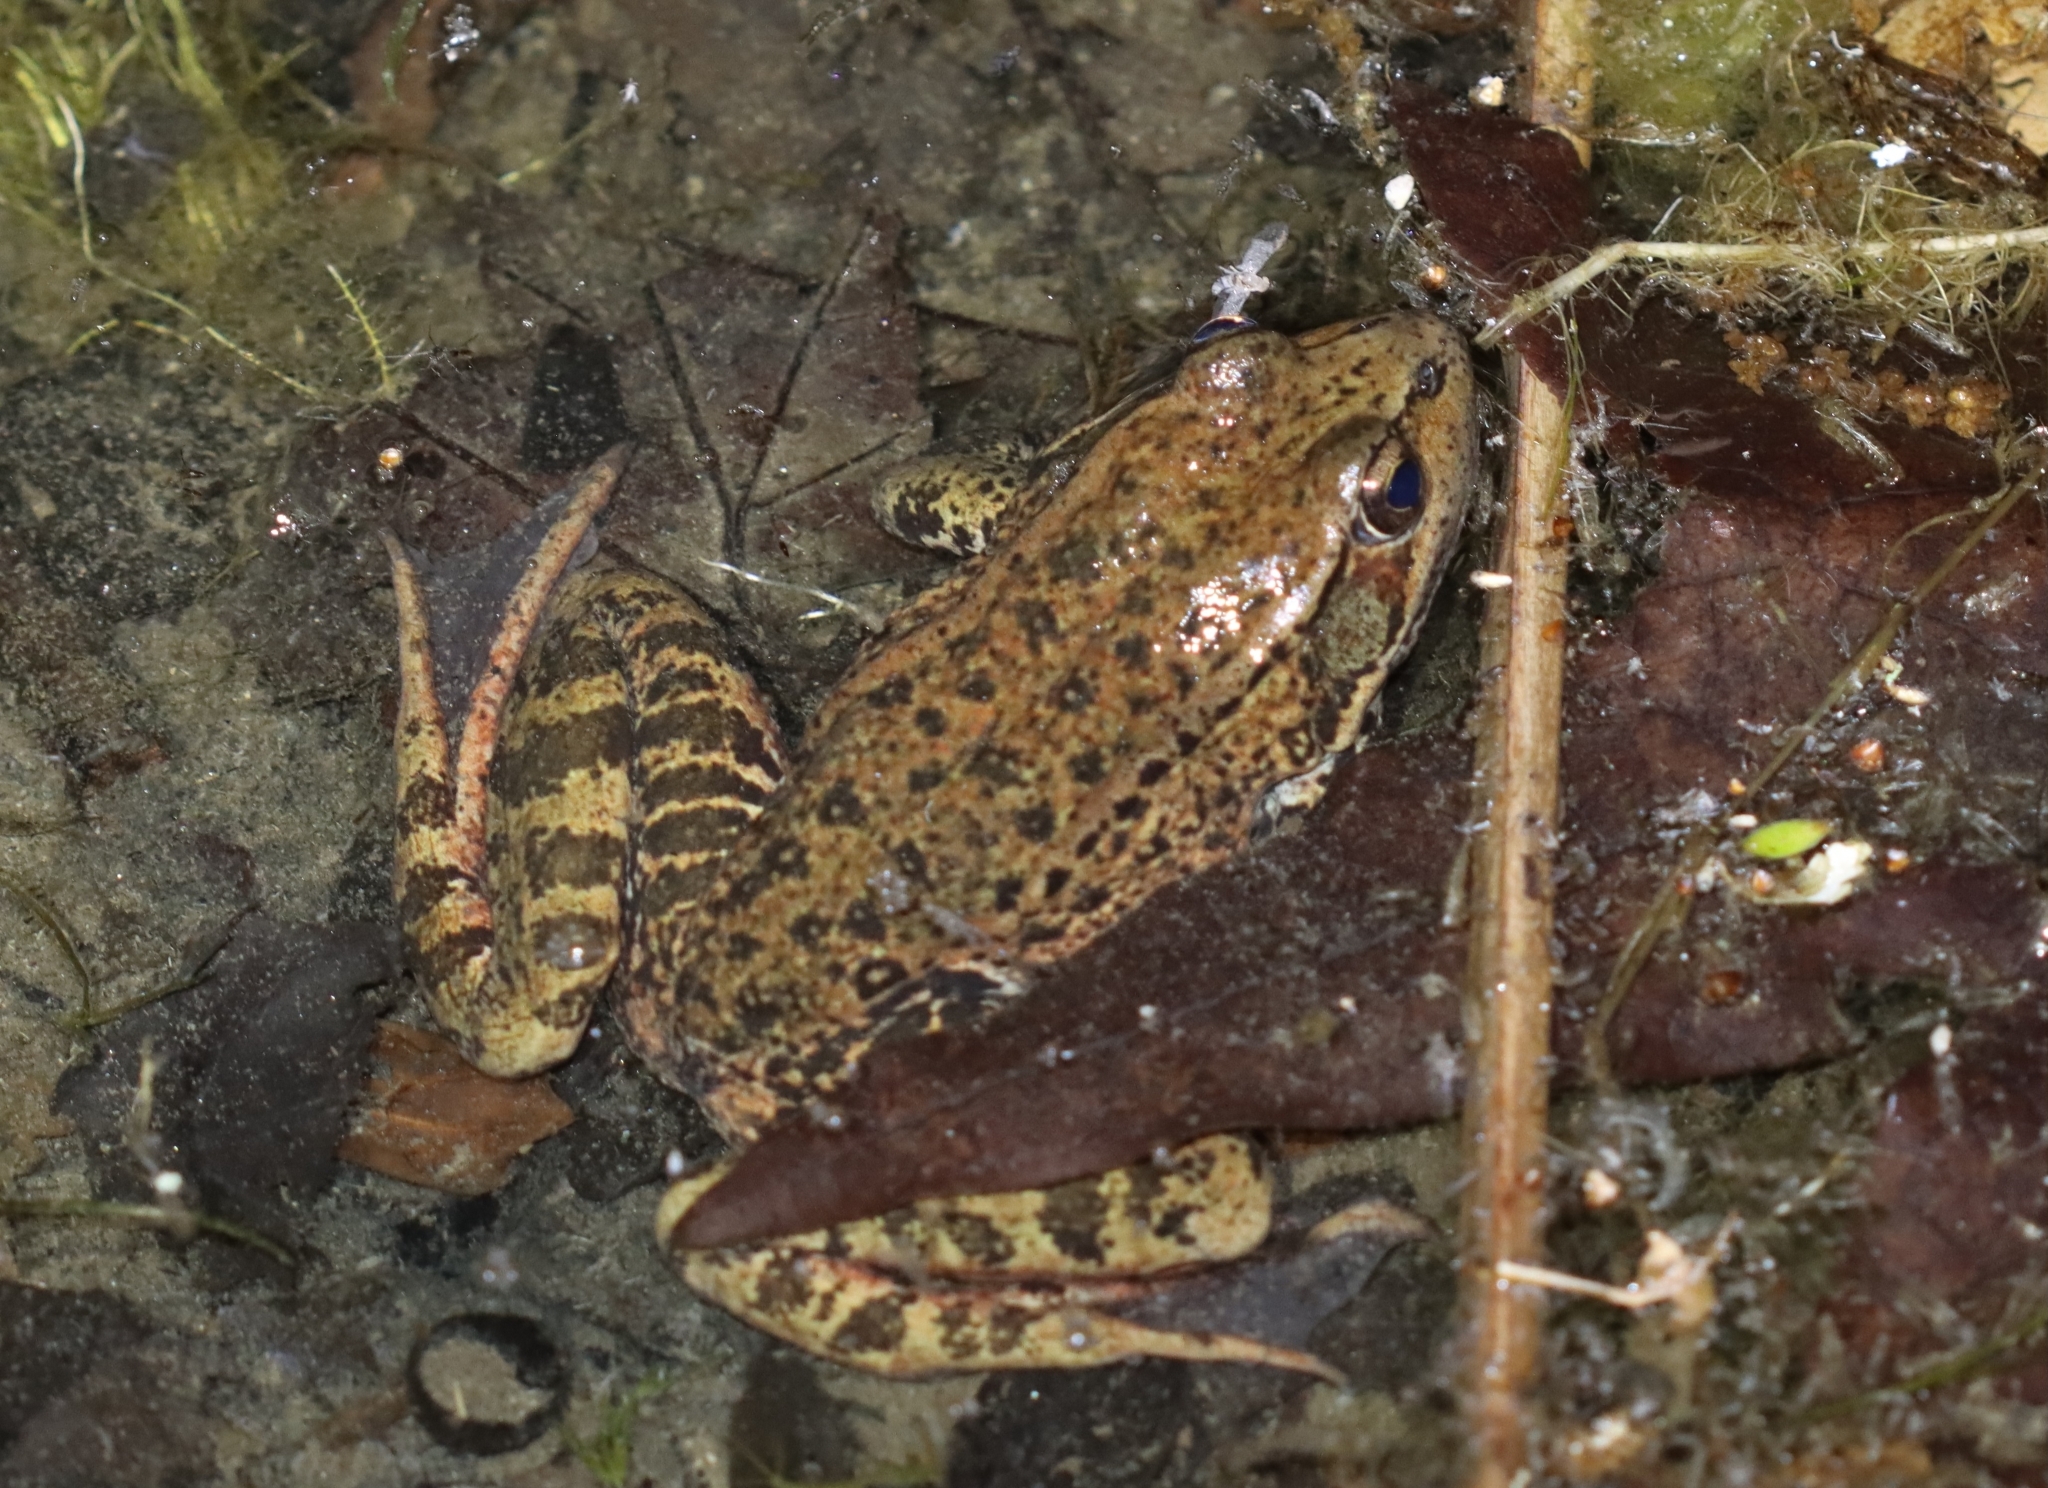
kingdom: Animalia
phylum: Chordata
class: Amphibia
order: Anura
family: Ranidae
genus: Rana
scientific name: Rana draytonii
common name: California red-legged frog
